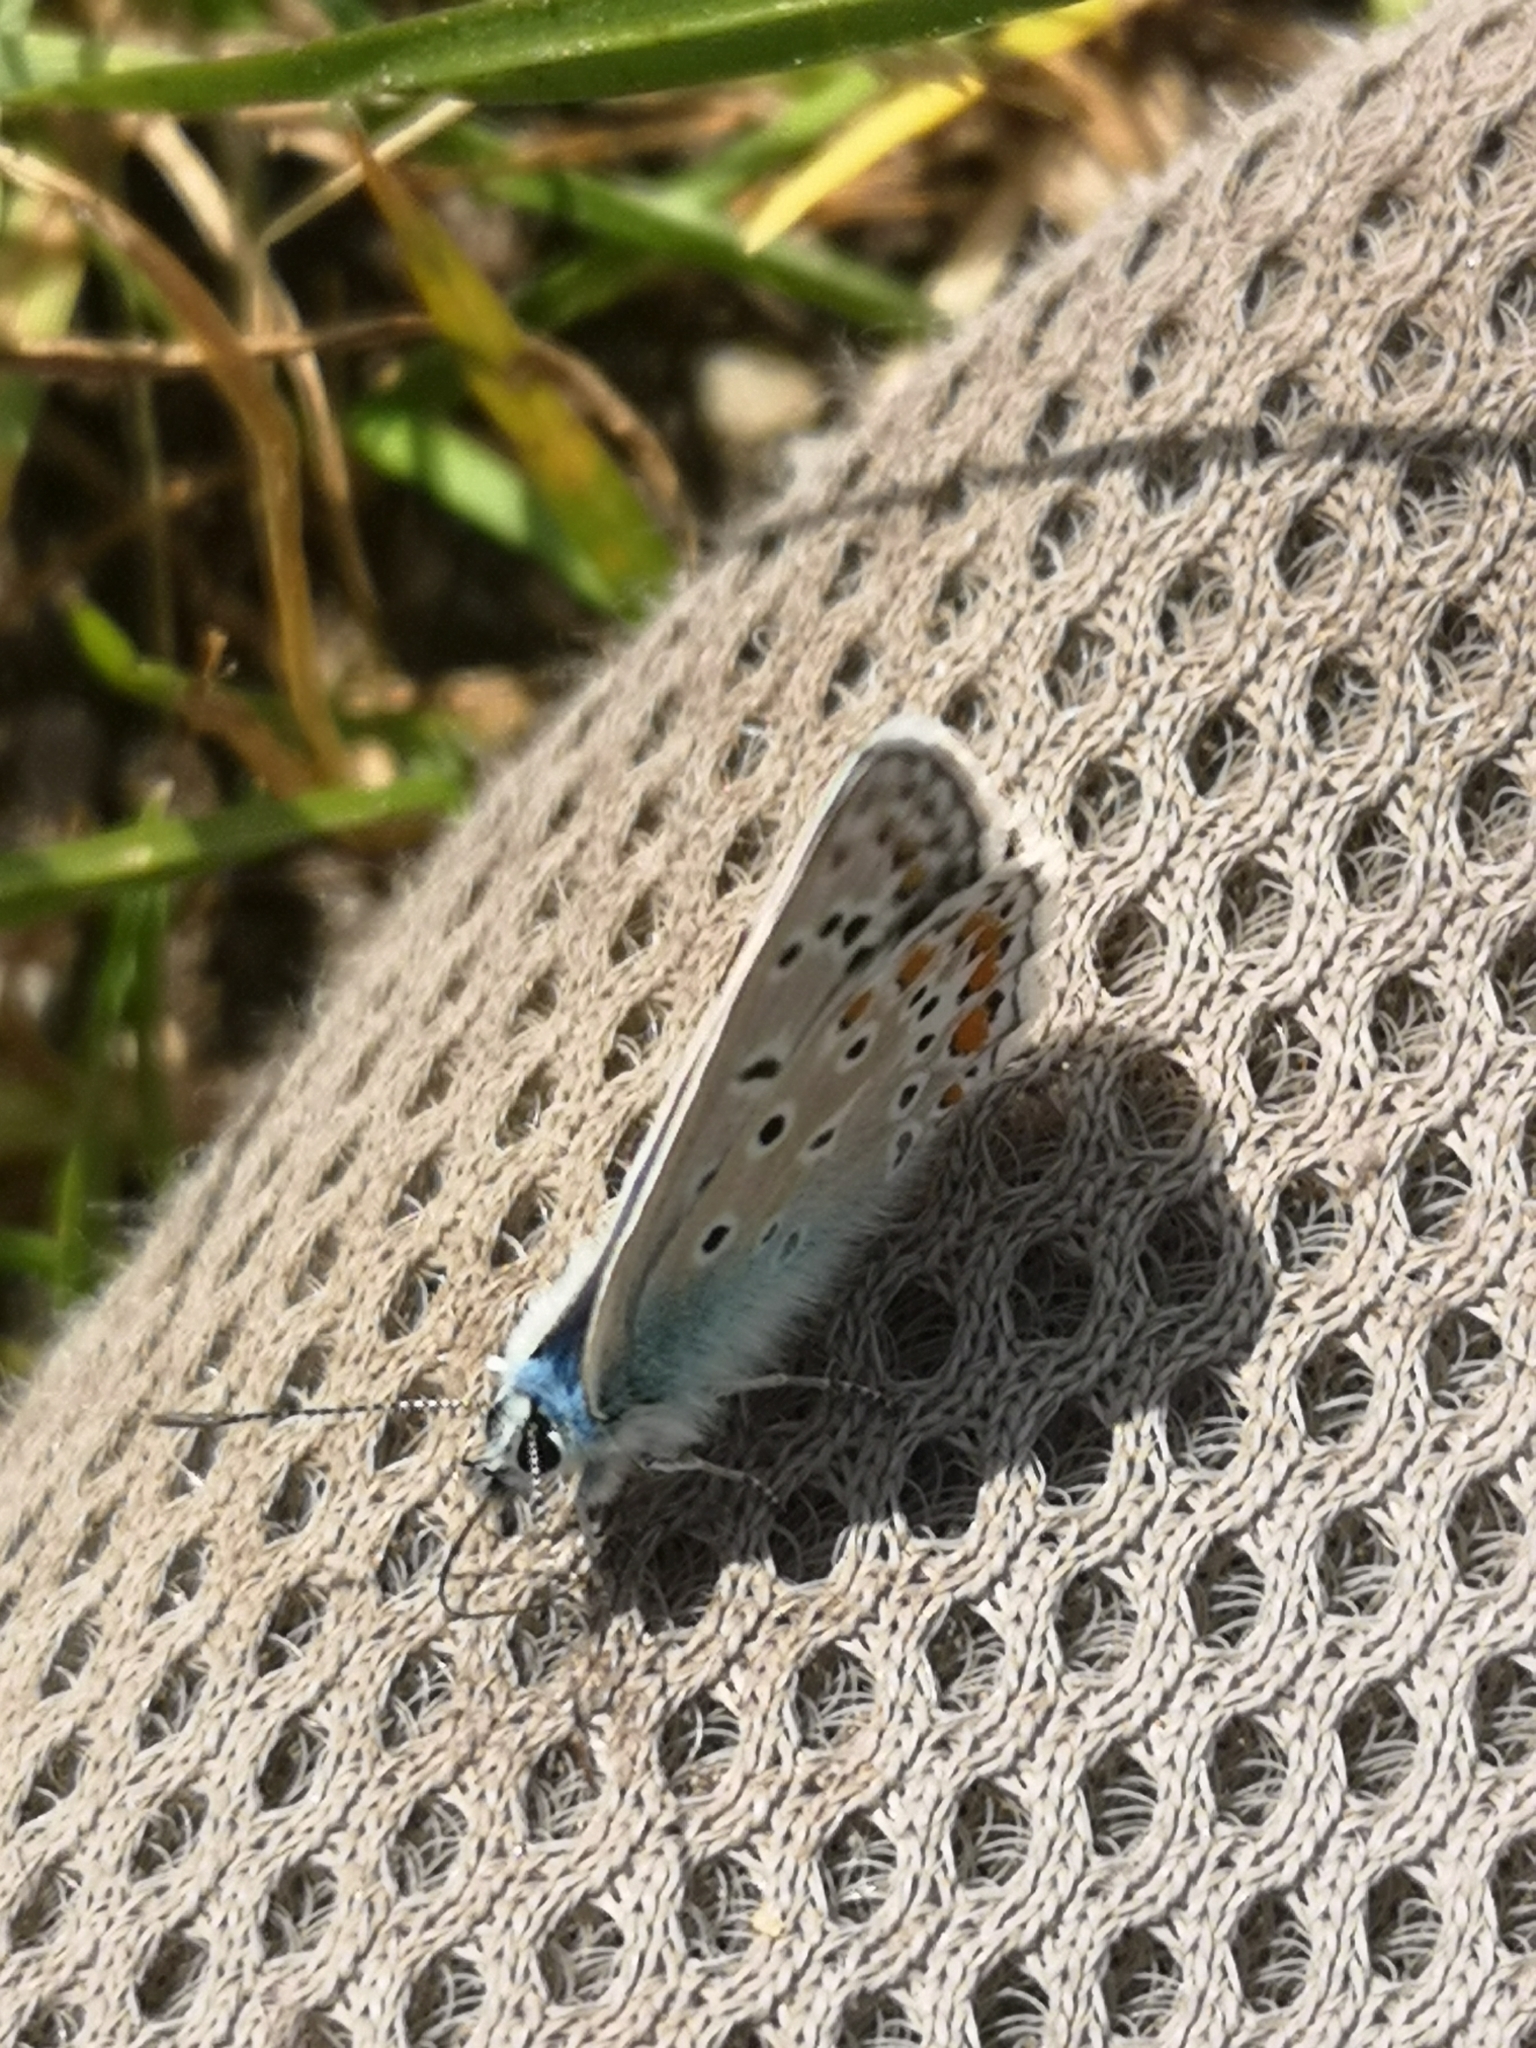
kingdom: Animalia
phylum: Arthropoda
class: Insecta
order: Lepidoptera
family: Lycaenidae
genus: Polyommatus
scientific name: Polyommatus icarus
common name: Common blue
